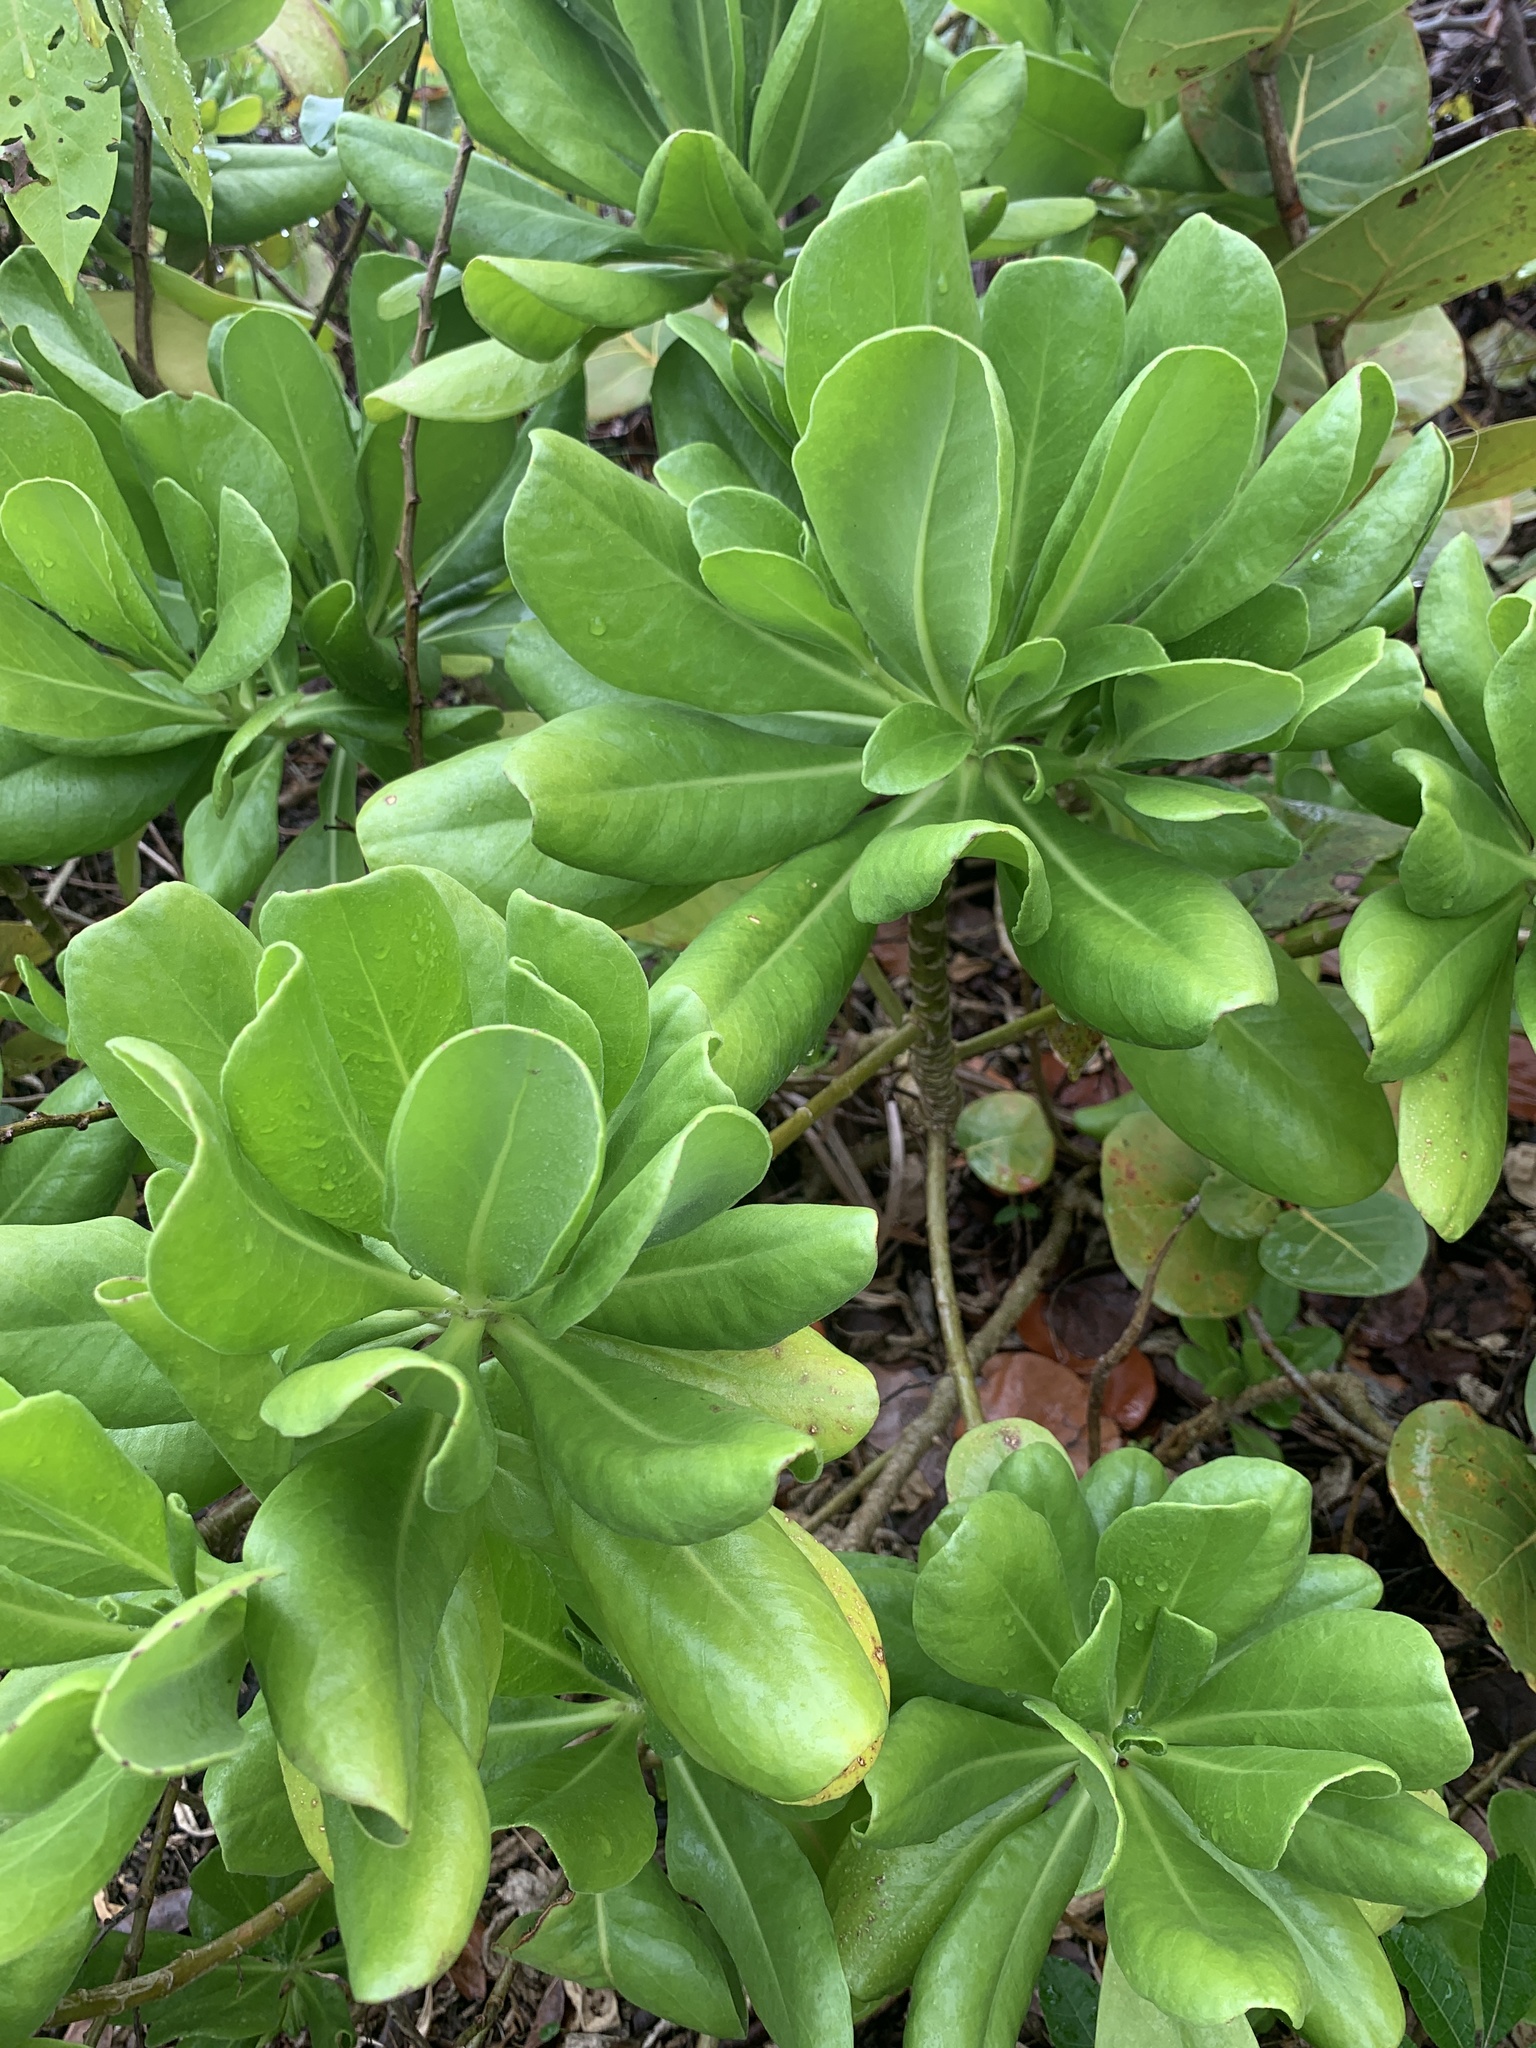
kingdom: Plantae
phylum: Tracheophyta
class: Magnoliopsida
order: Asterales
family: Goodeniaceae
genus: Scaevola
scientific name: Scaevola taccada
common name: Sea lettucetree
